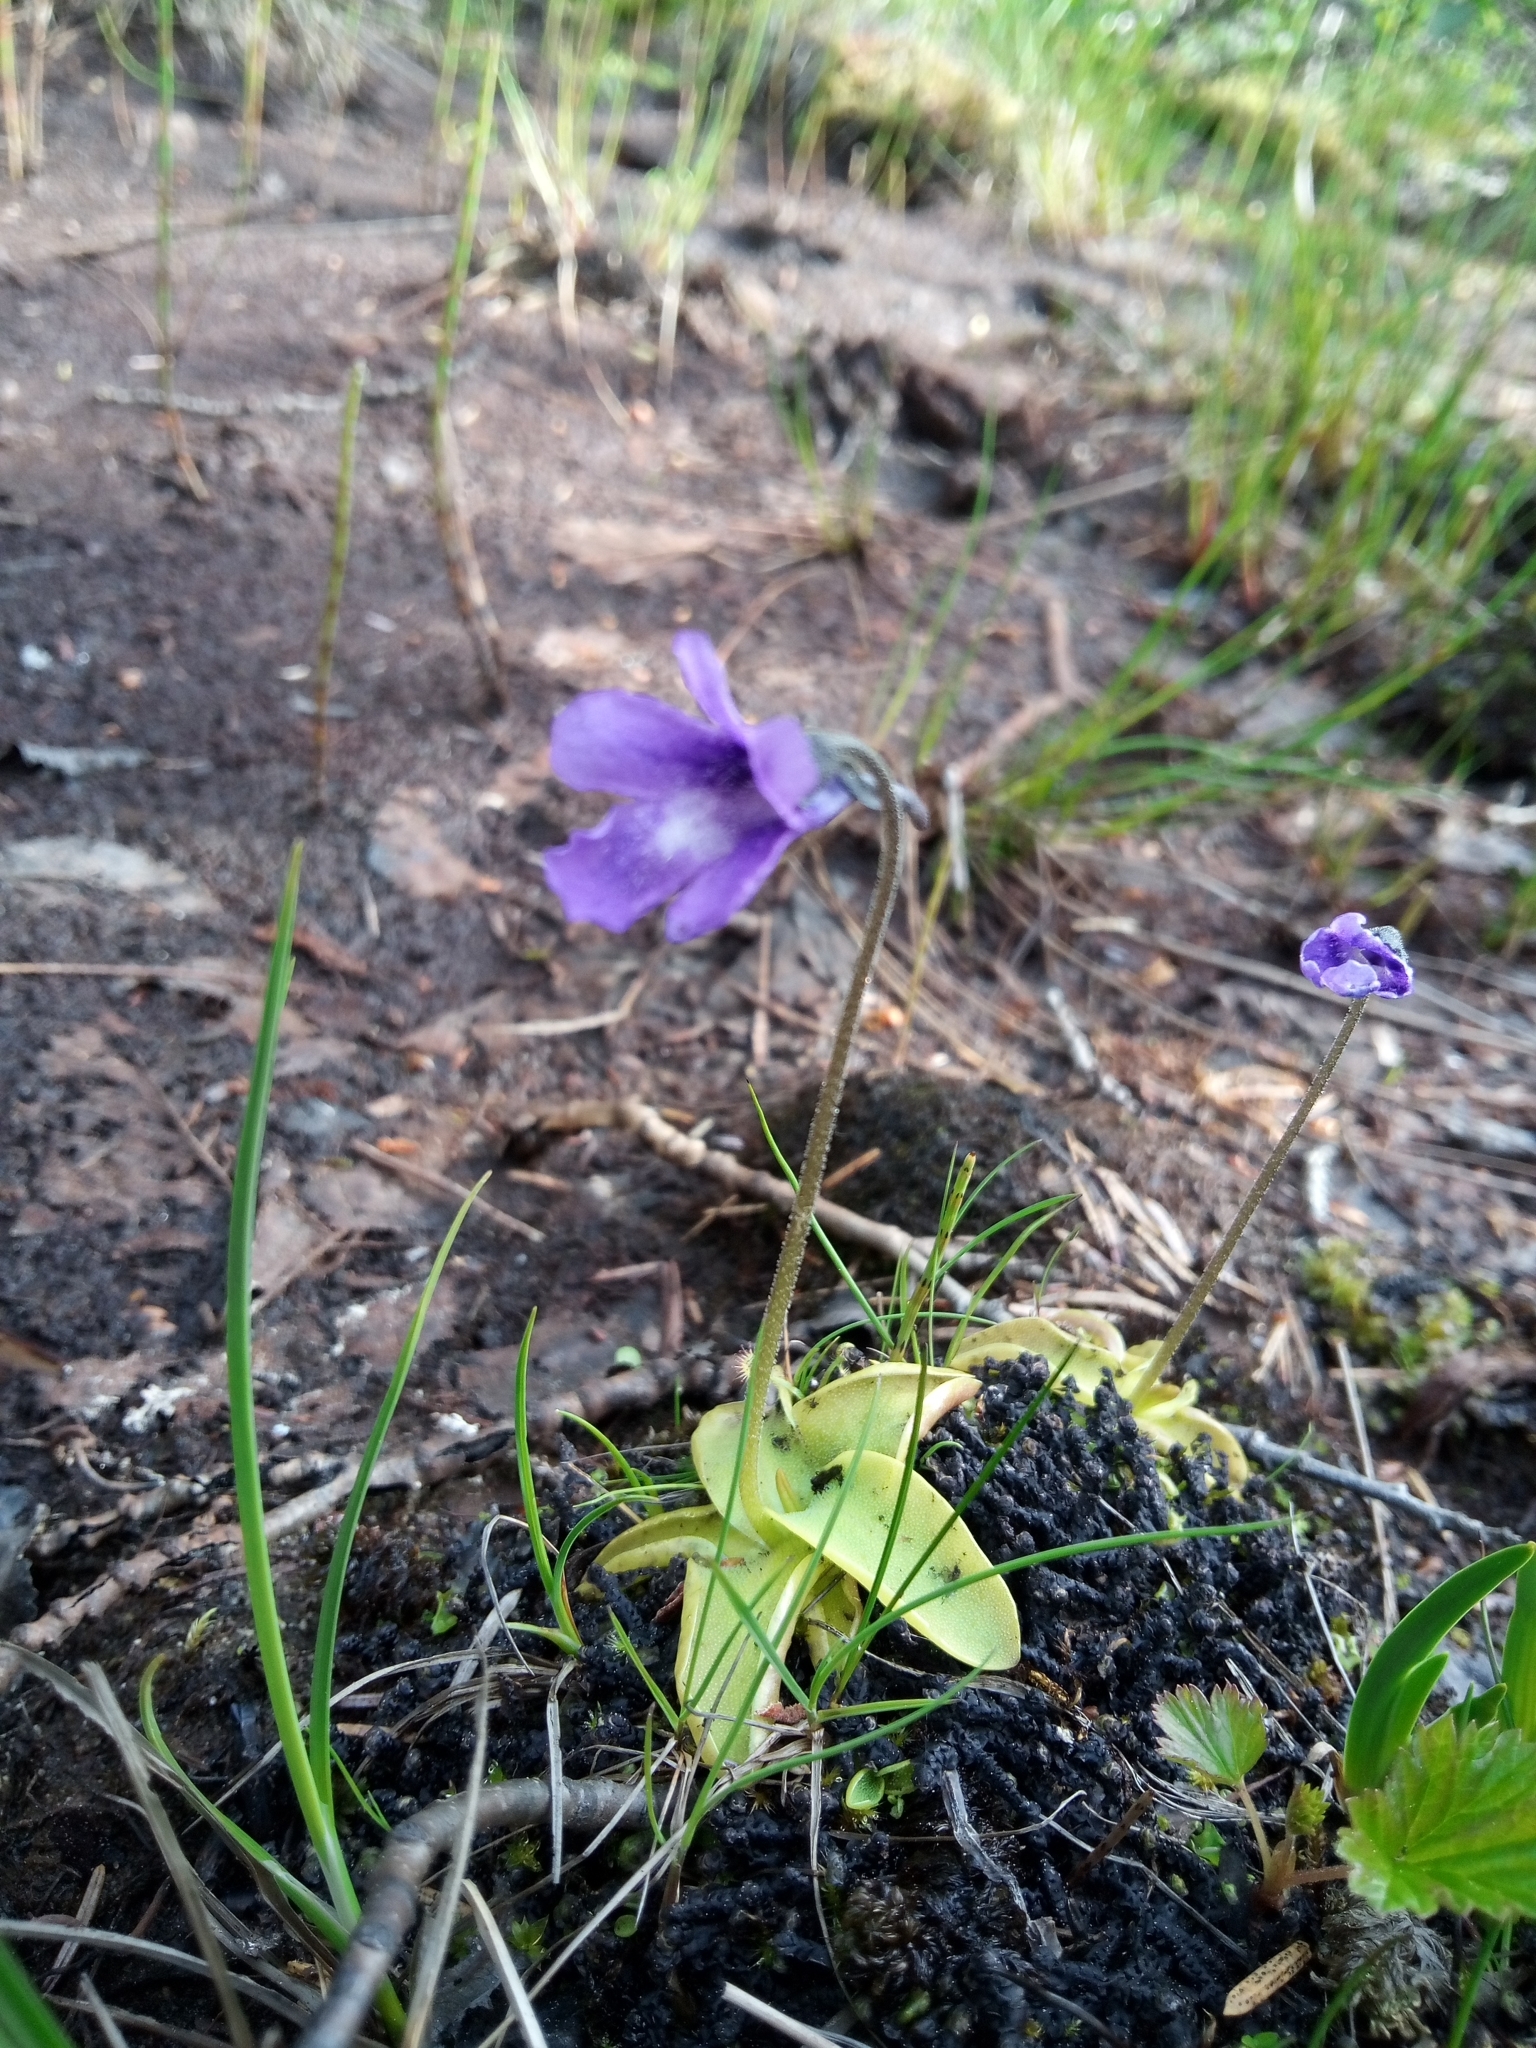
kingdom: Plantae
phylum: Tracheophyta
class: Magnoliopsida
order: Lamiales
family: Lentibulariaceae
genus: Pinguicula
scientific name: Pinguicula vulgaris
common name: Common butterwort
